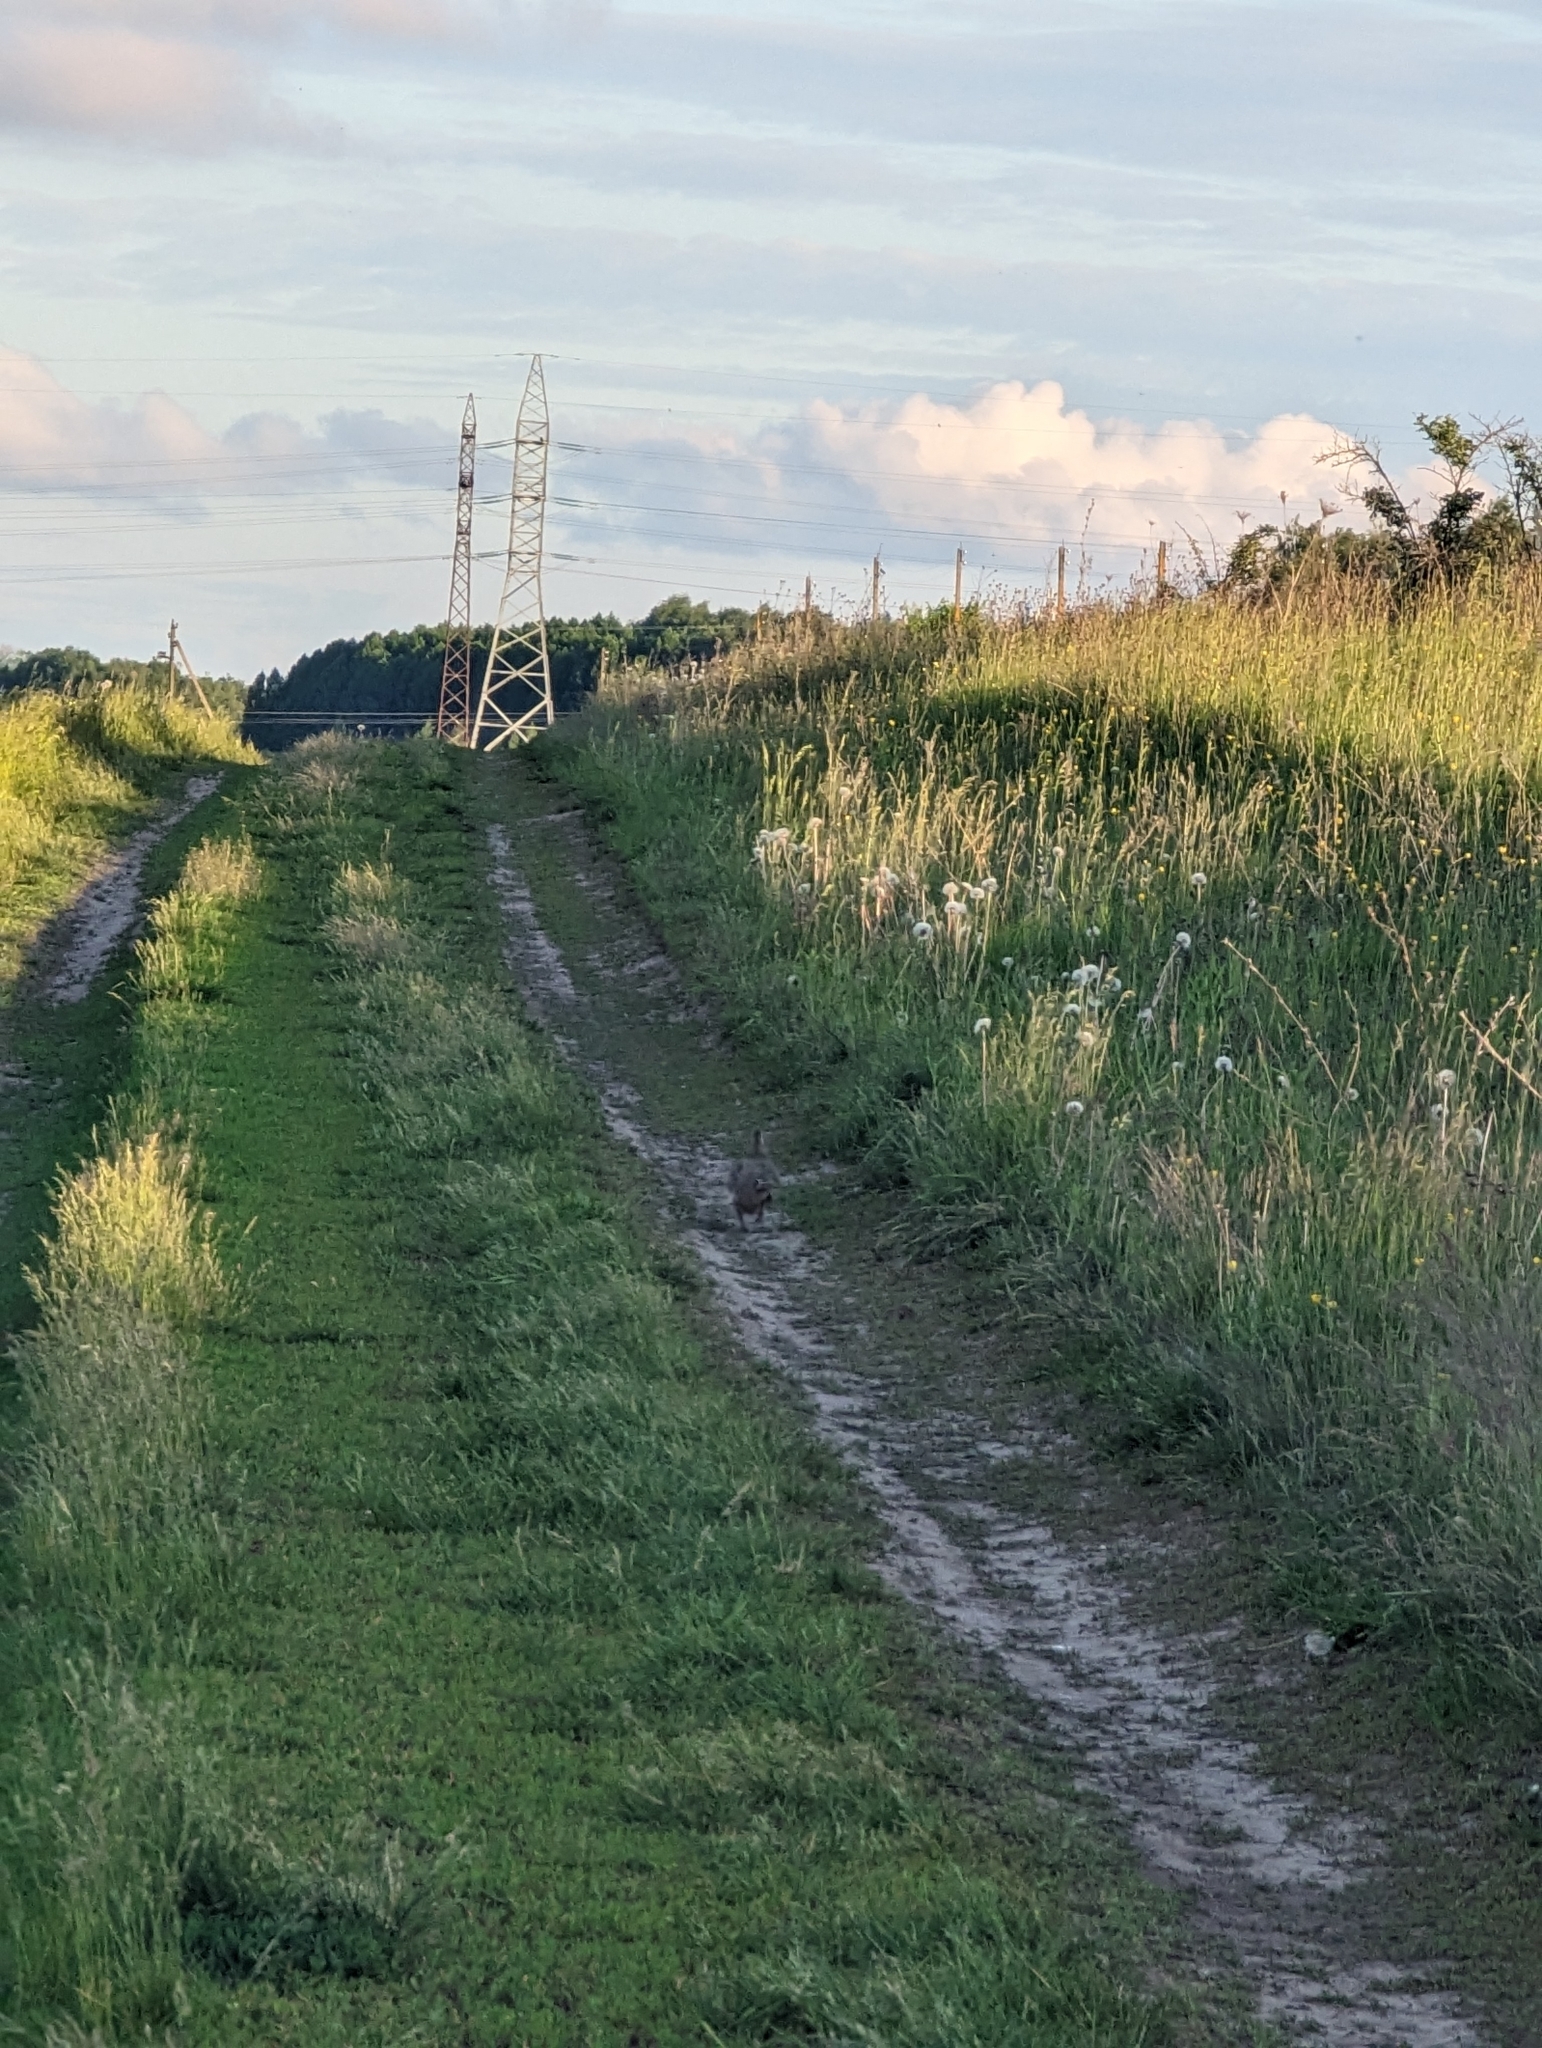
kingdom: Animalia
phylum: Chordata
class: Aves
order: Galliformes
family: Phasianidae
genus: Perdix
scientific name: Perdix perdix
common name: Grey partridge
